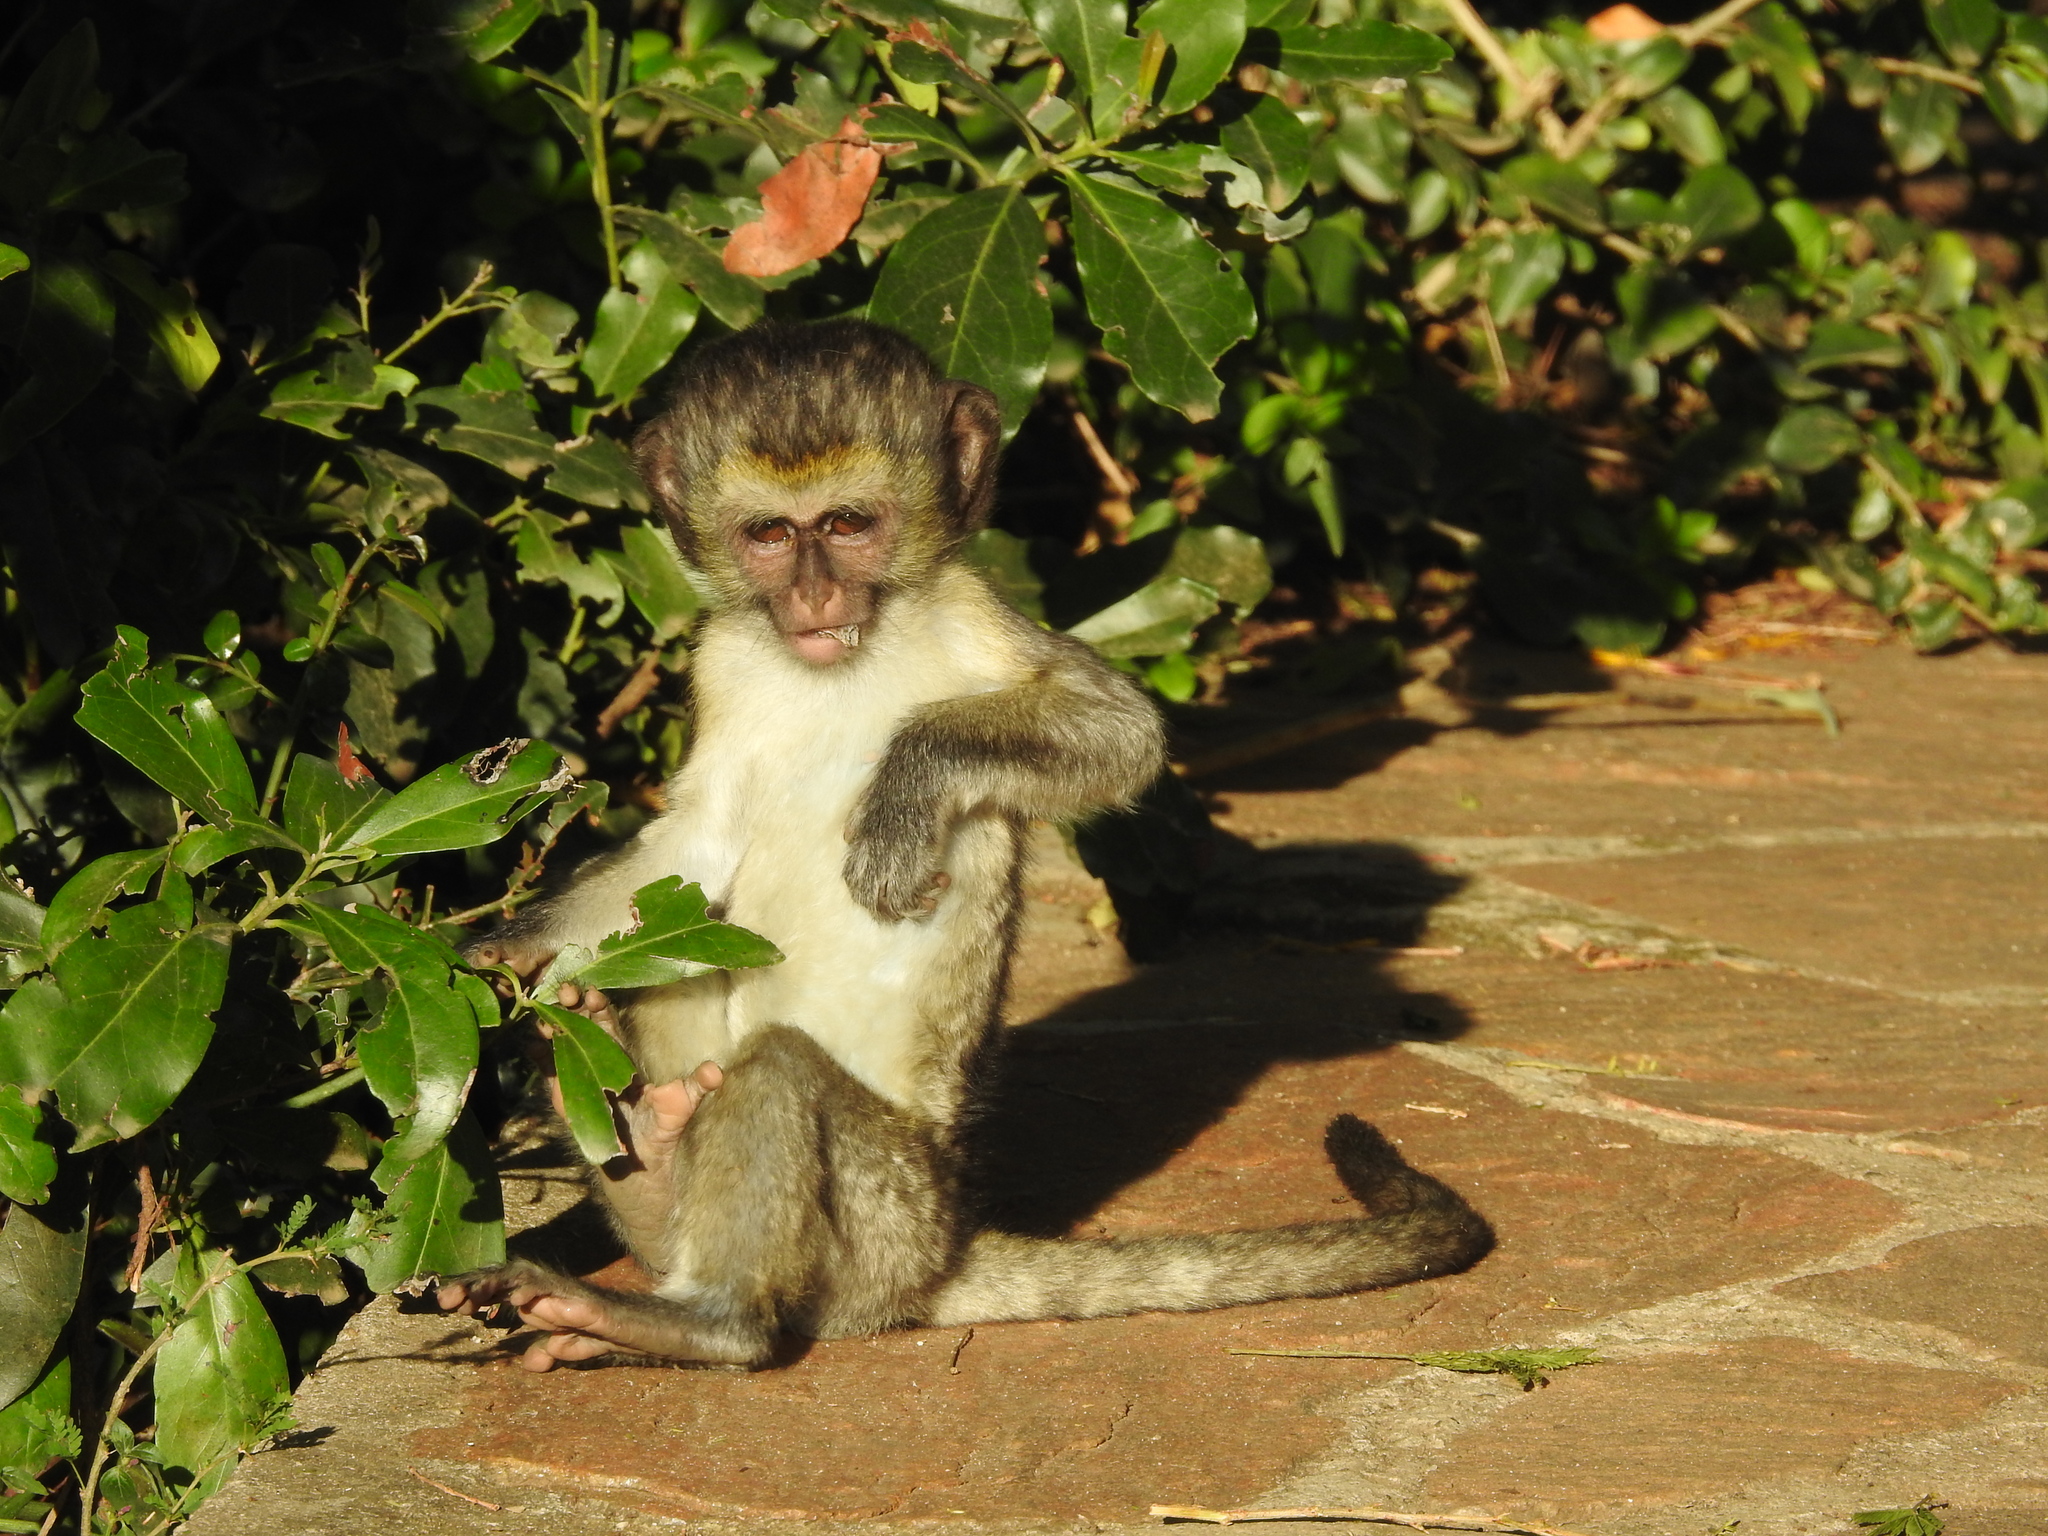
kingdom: Animalia
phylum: Chordata
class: Mammalia
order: Primates
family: Cercopithecidae
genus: Chlorocebus
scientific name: Chlorocebus pygerythrus
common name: Vervet monkey
